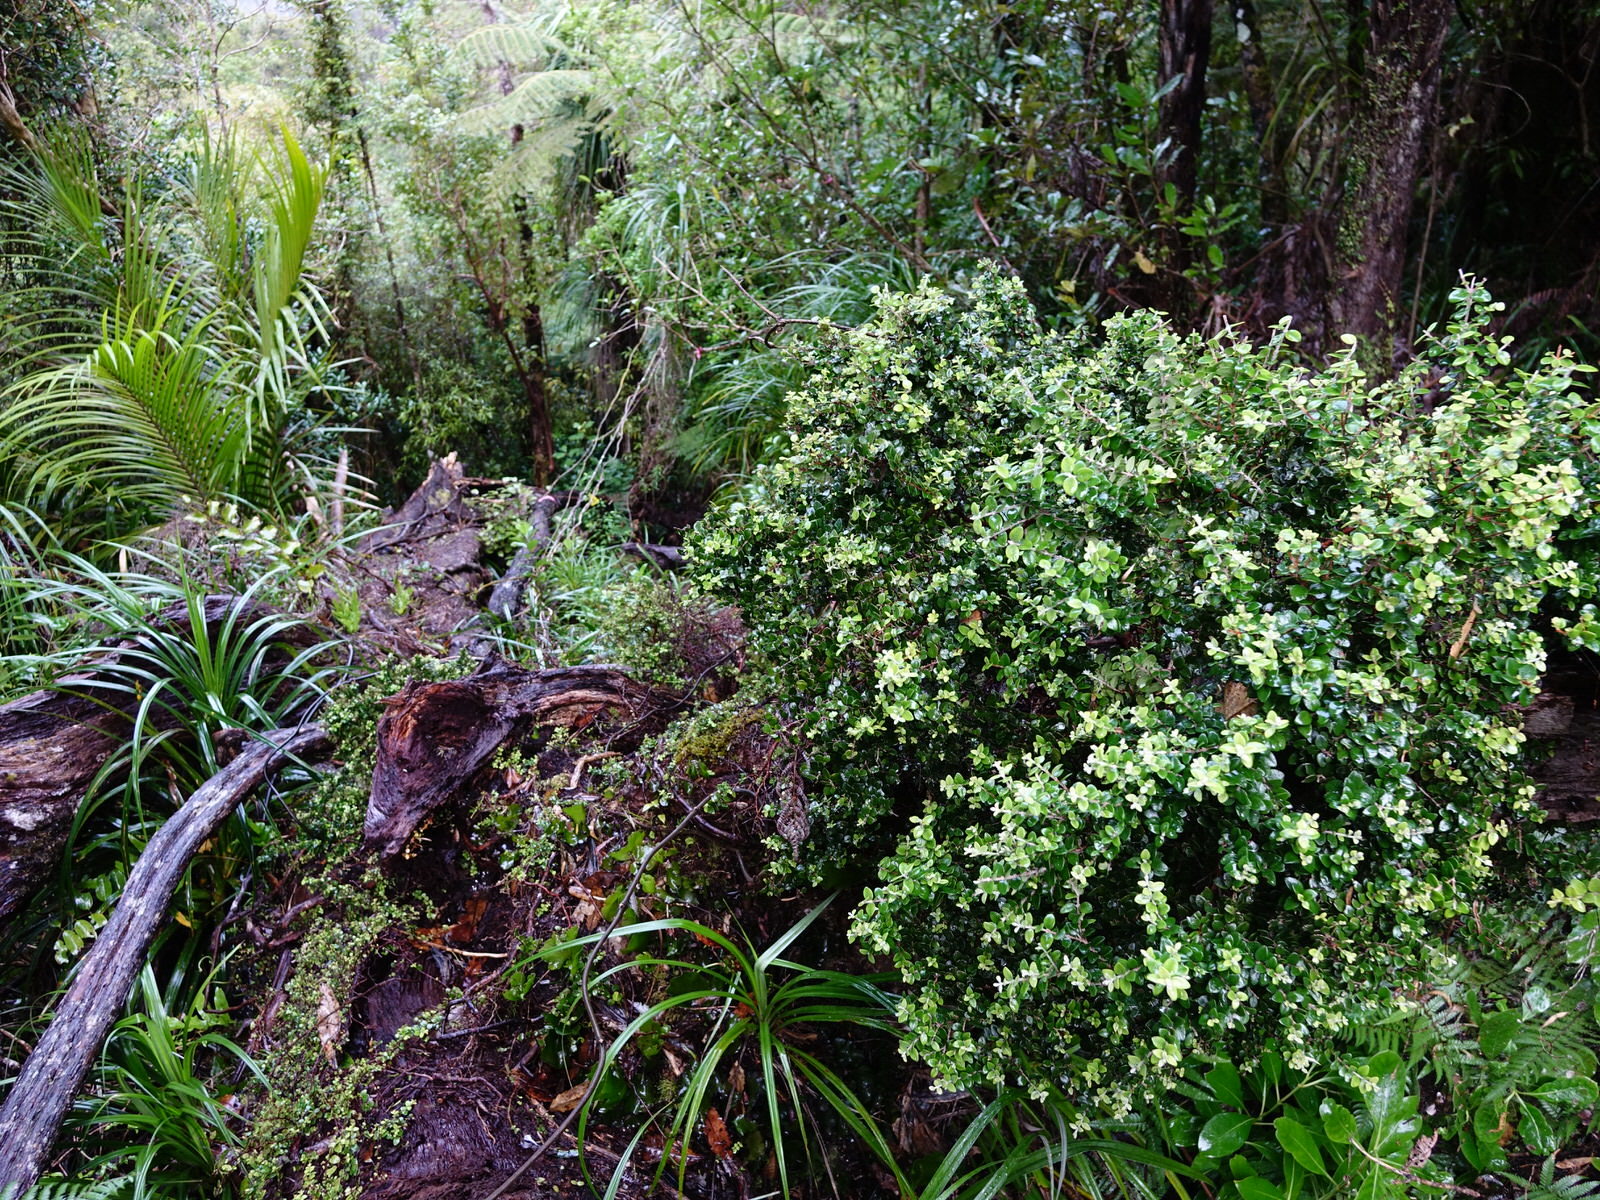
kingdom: Plantae
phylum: Tracheophyta
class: Magnoliopsida
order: Myrtales
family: Myrtaceae
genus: Metrosideros
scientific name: Metrosideros perforata
